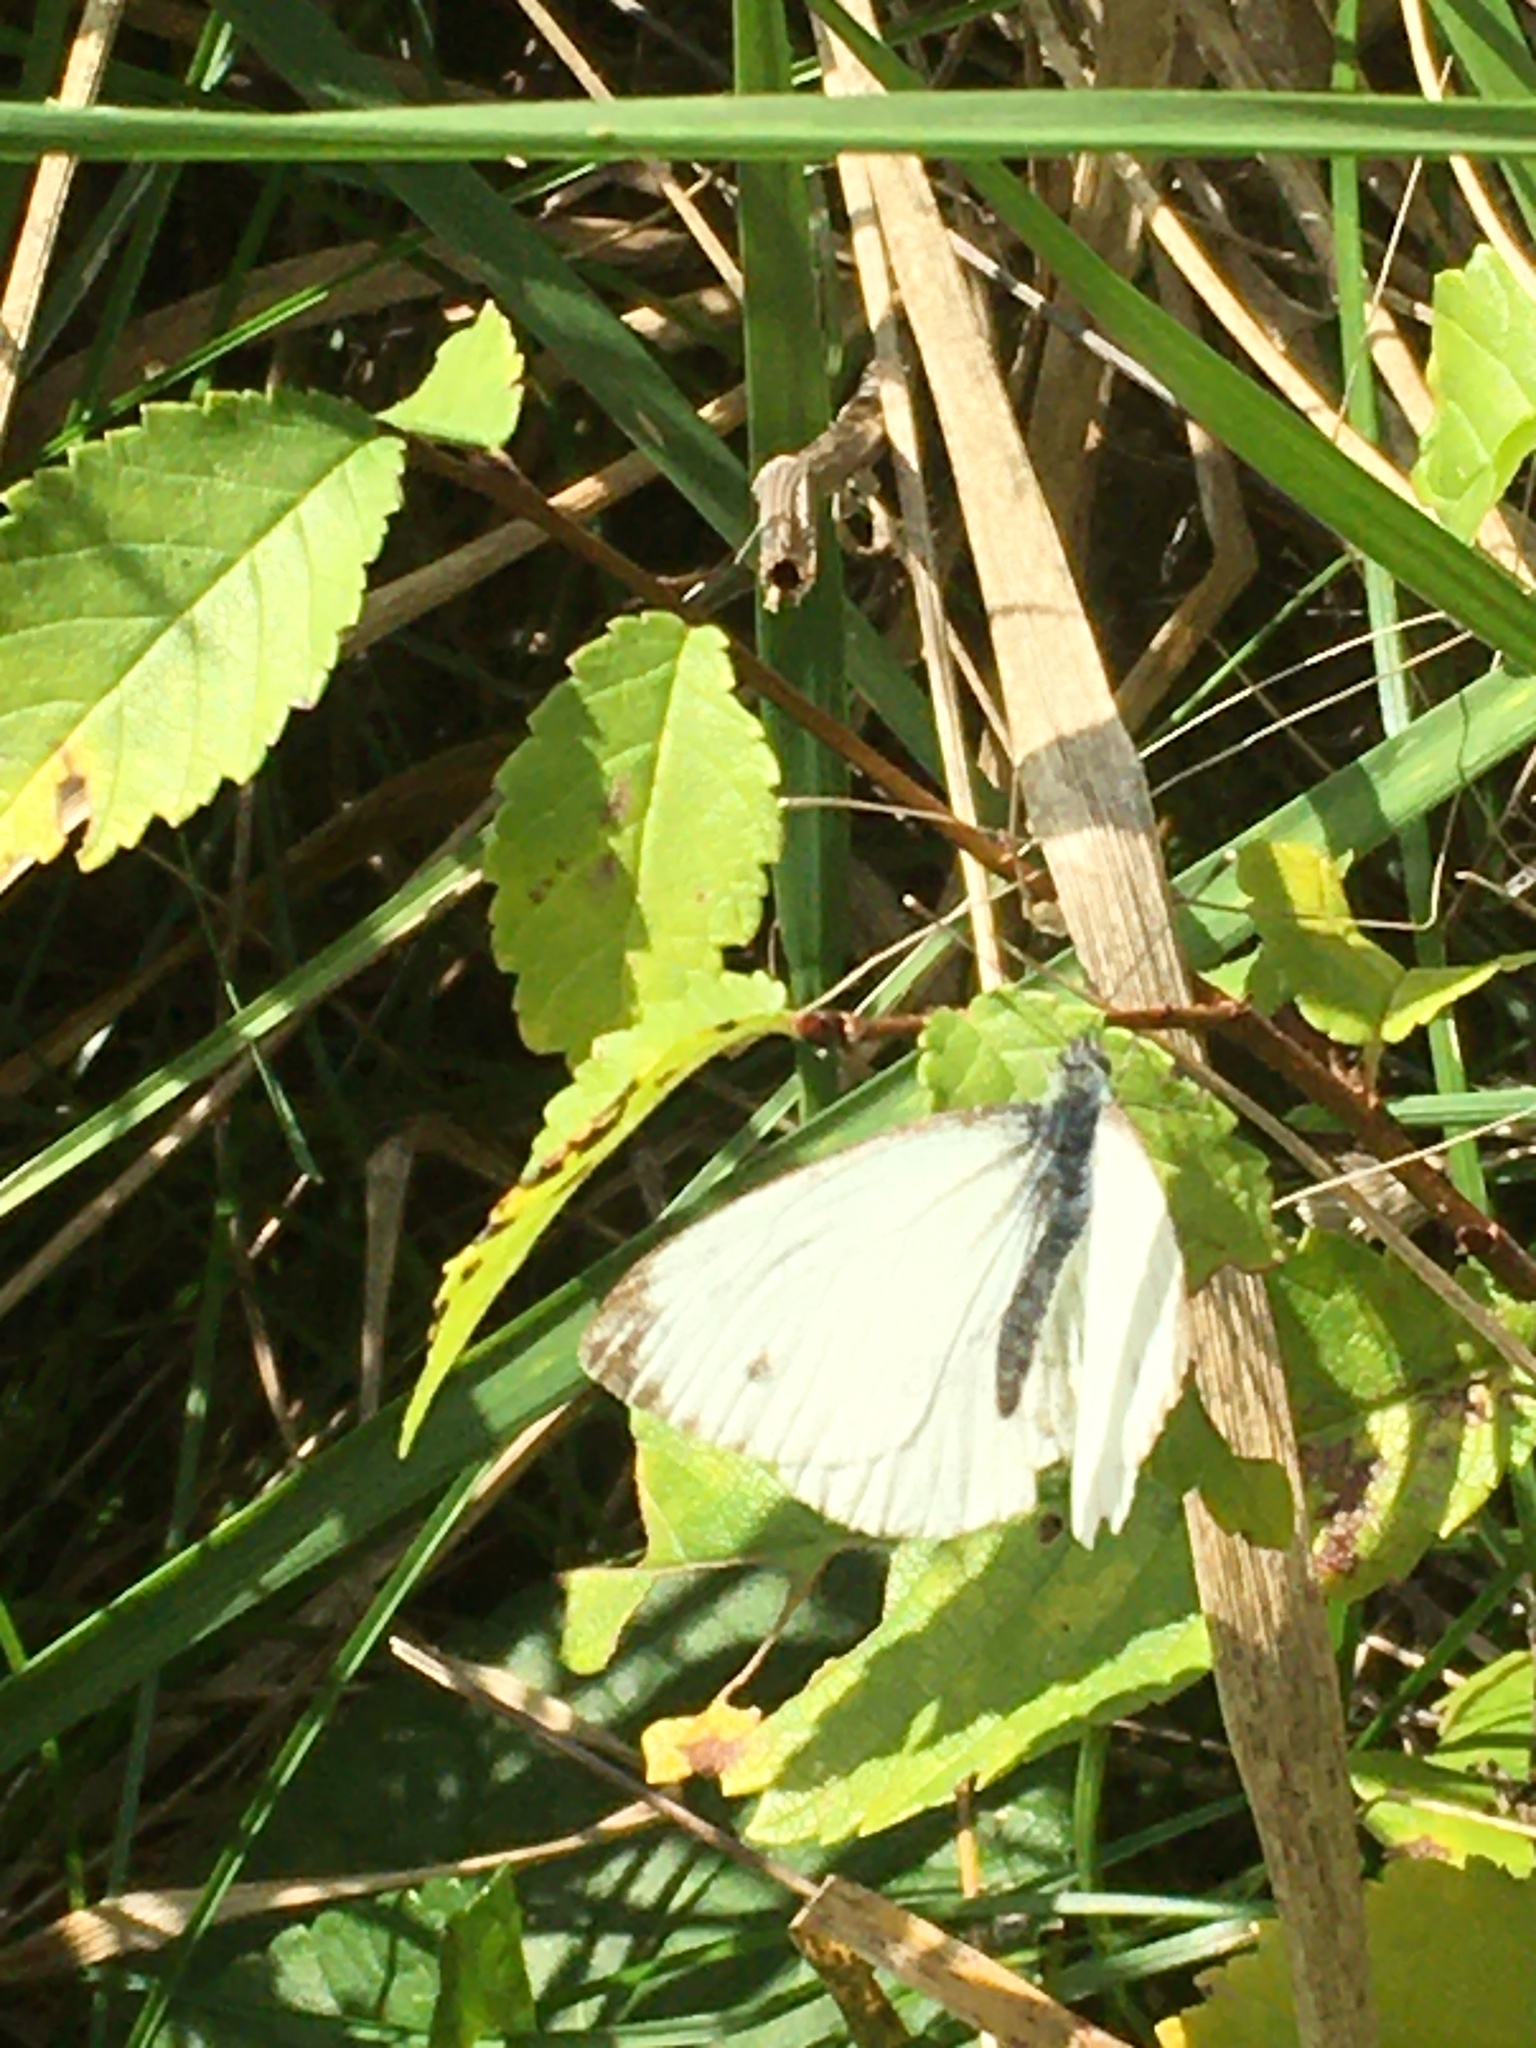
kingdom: Animalia
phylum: Arthropoda
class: Insecta
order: Lepidoptera
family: Pieridae
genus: Pieris
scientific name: Pieris napi
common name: Green-veined white
